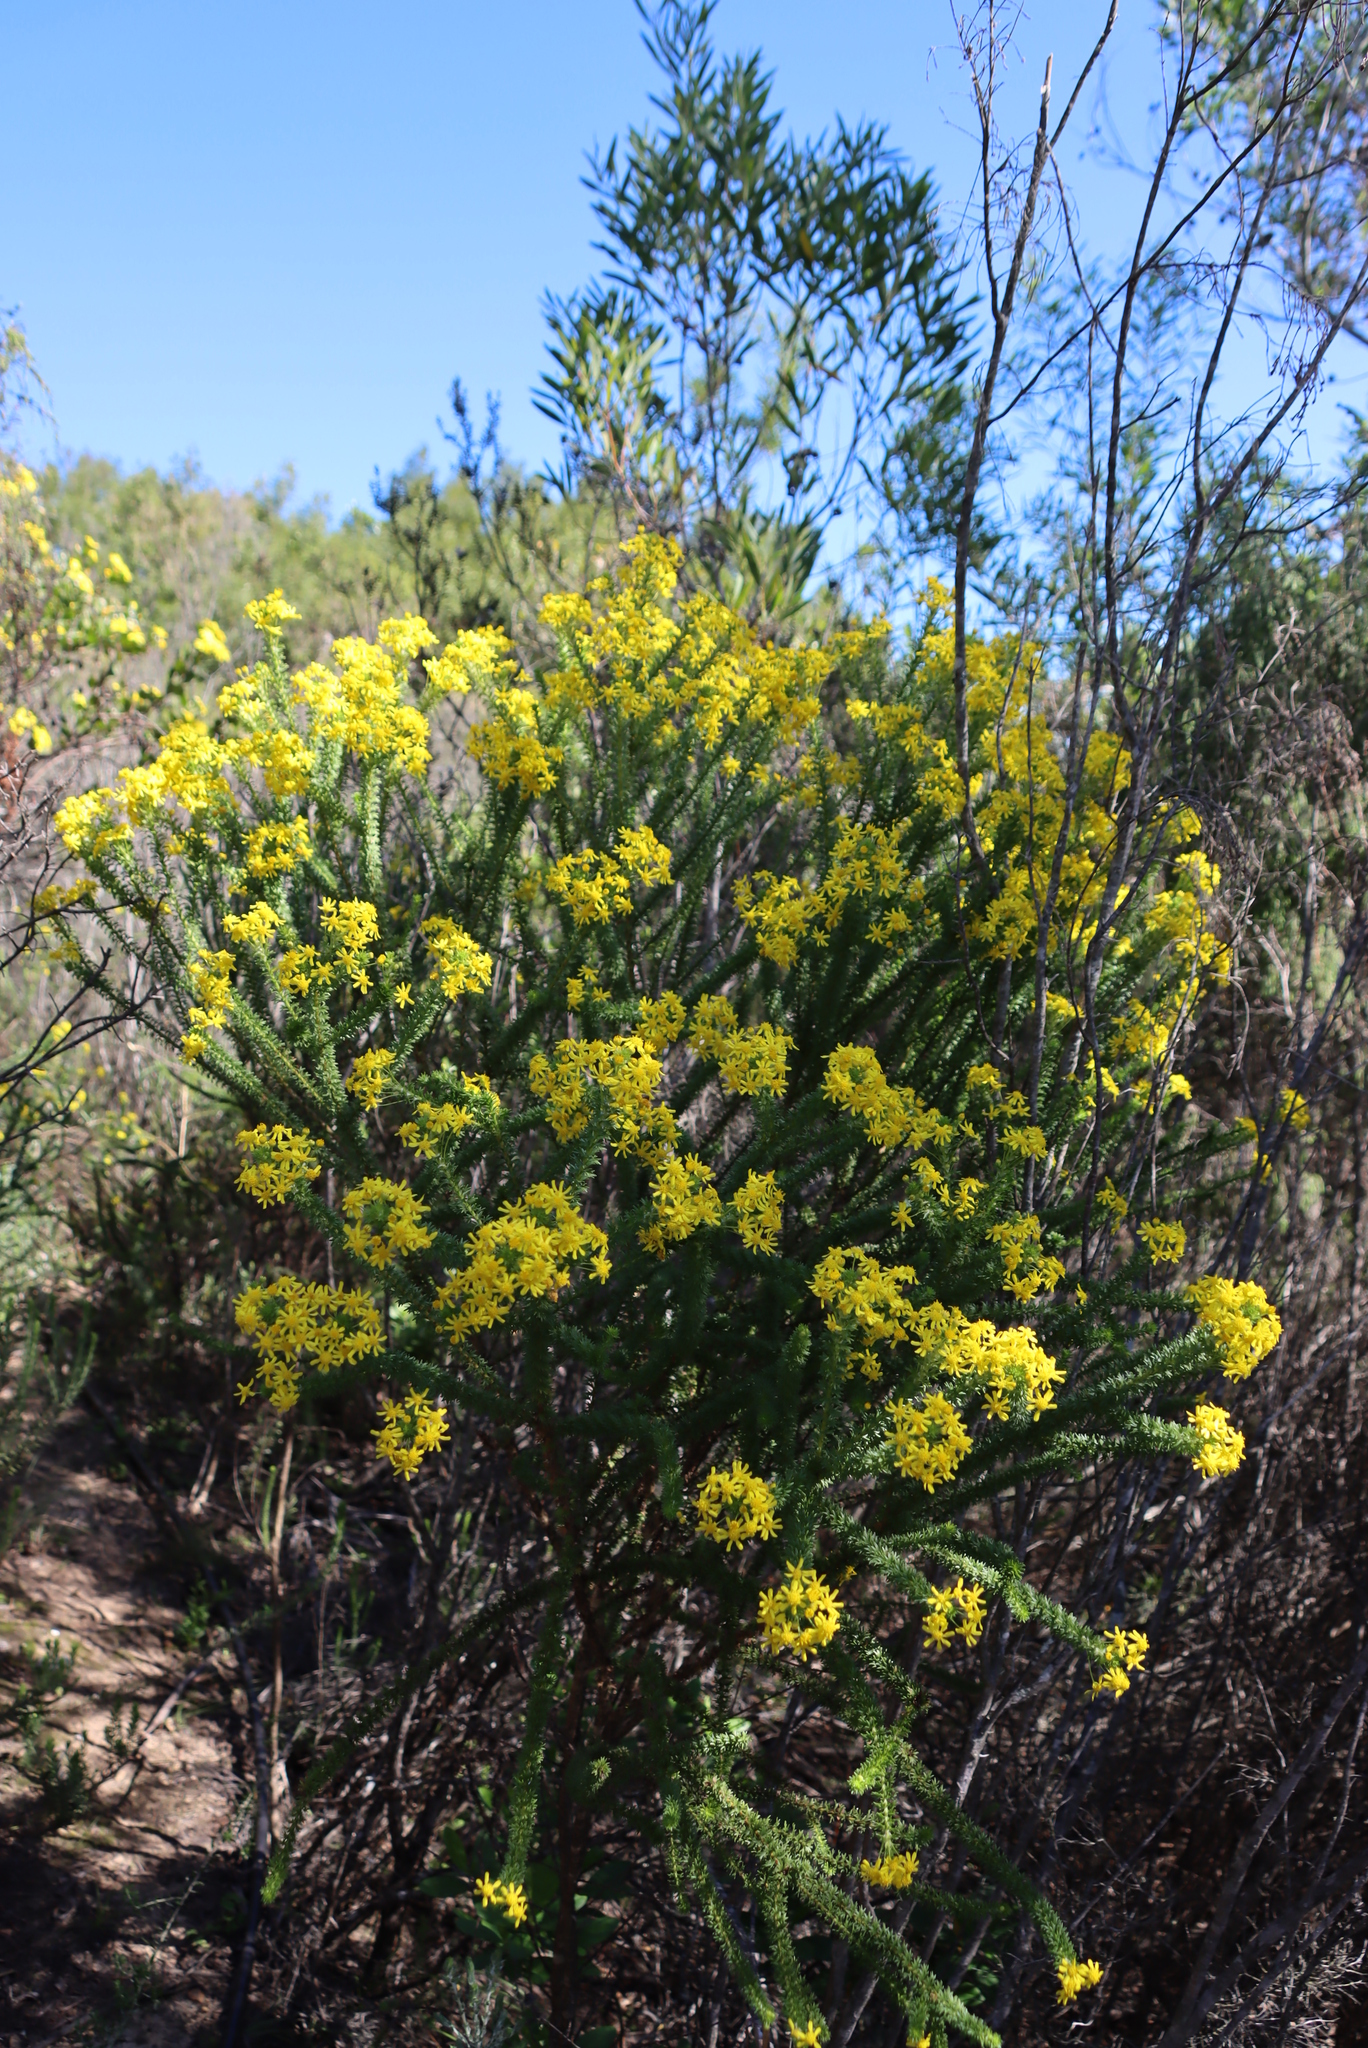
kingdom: Plantae
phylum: Tracheophyta
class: Magnoliopsida
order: Asterales
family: Asteraceae
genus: Euryops
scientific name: Euryops virgineus
